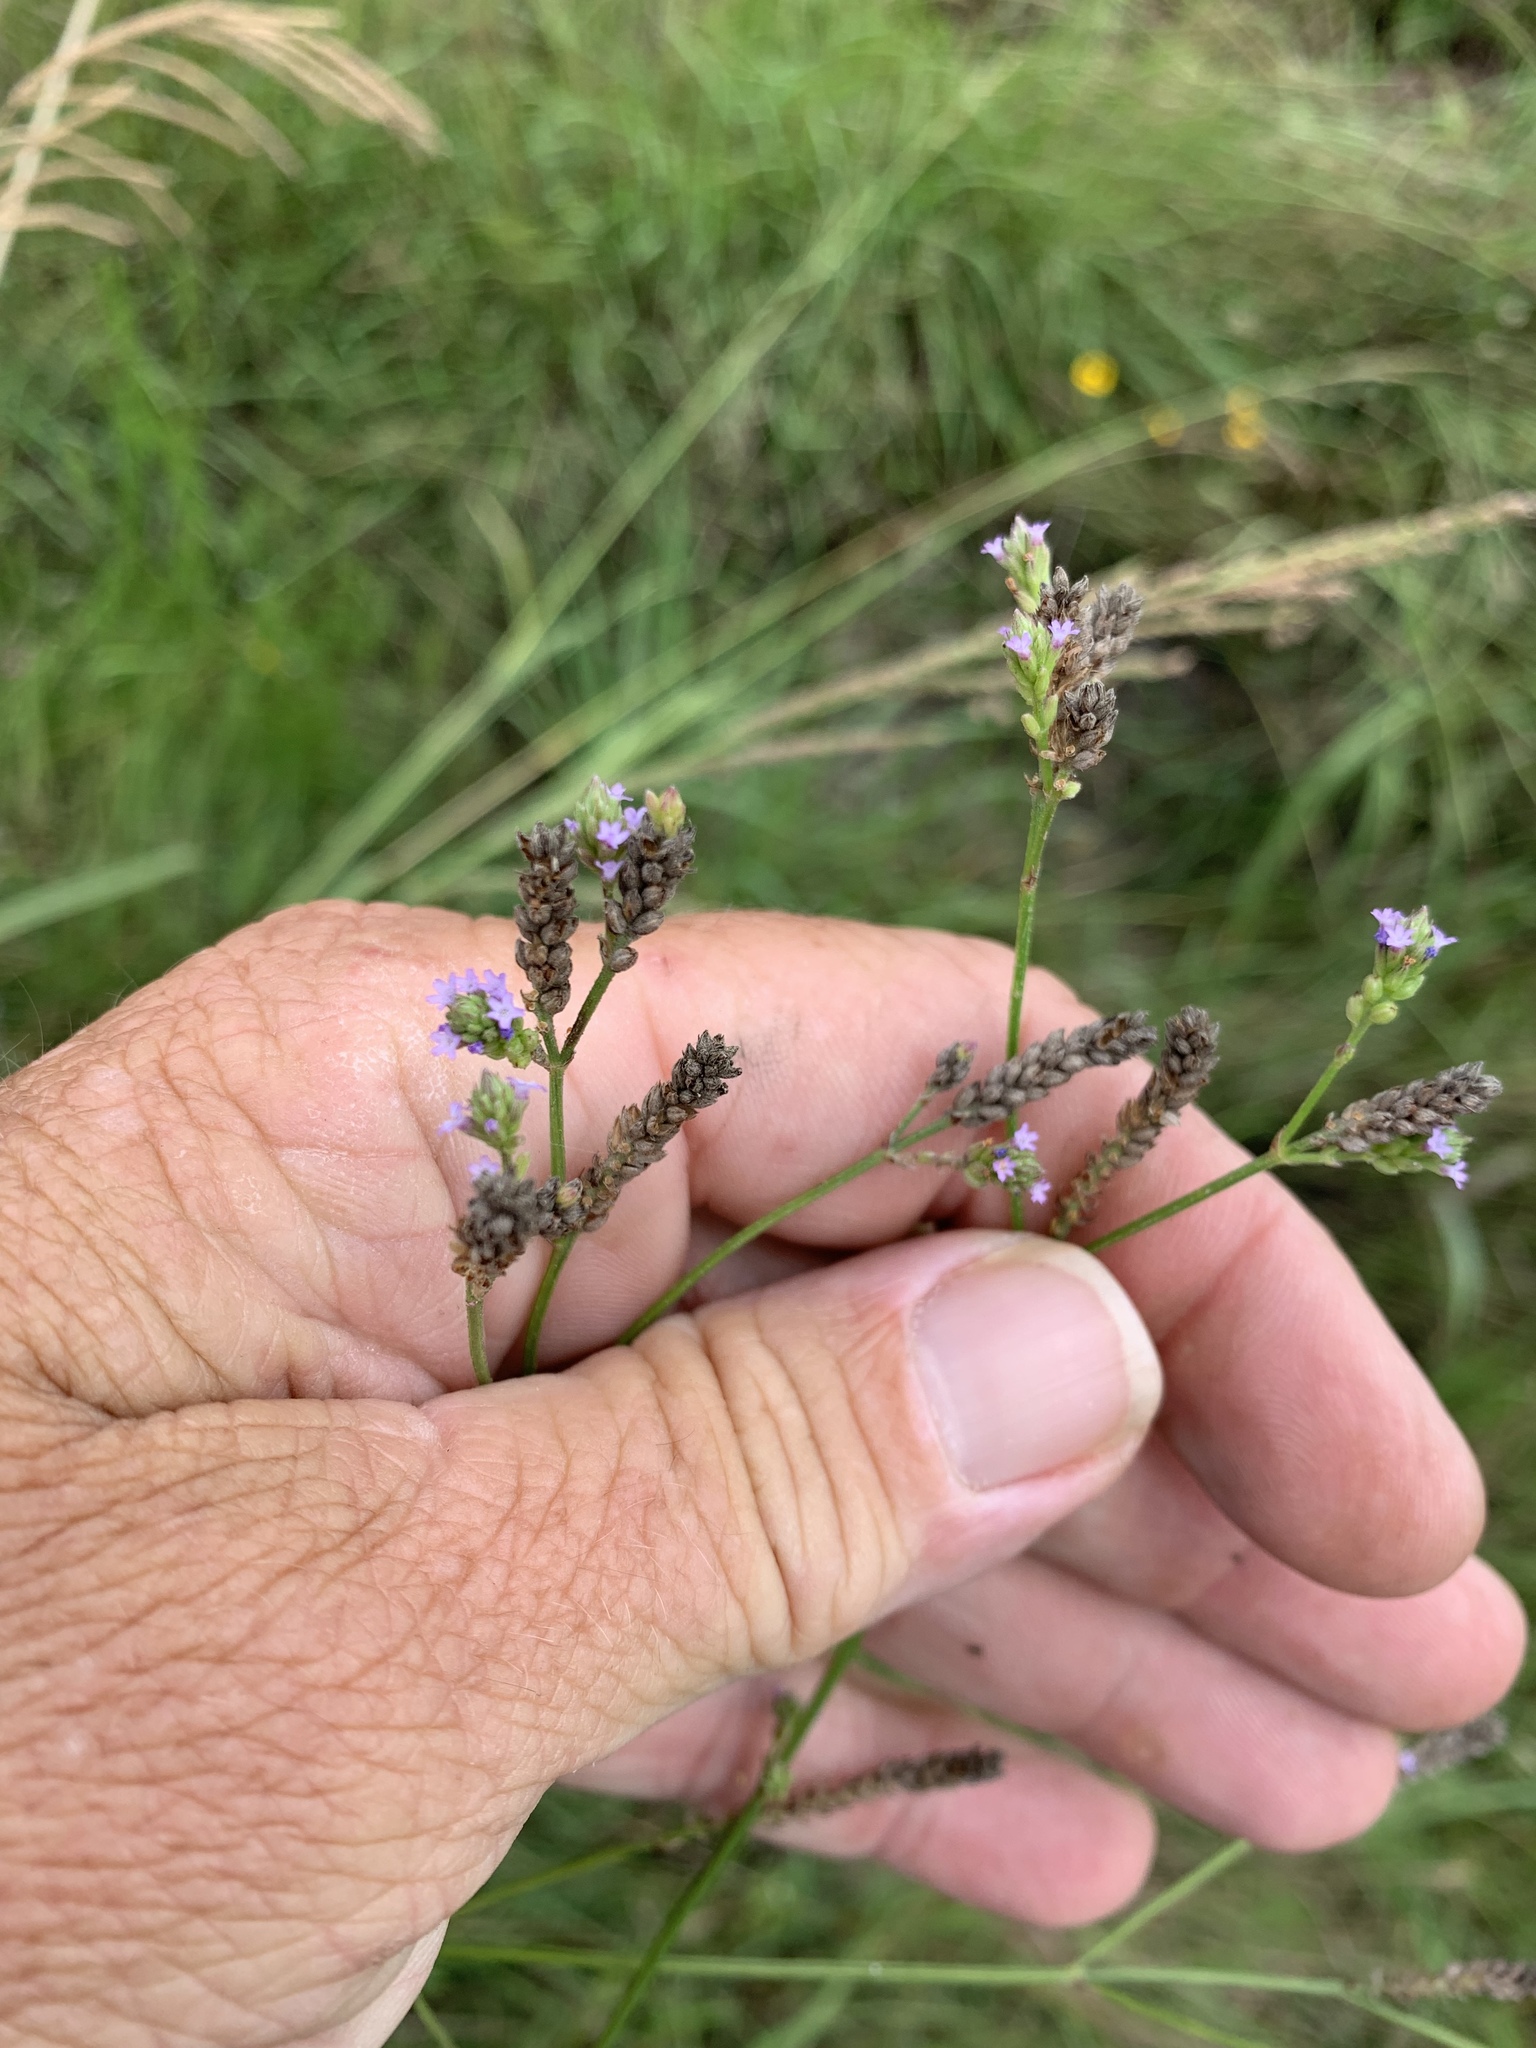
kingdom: Plantae
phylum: Tracheophyta
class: Magnoliopsida
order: Lamiales
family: Verbenaceae
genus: Verbena
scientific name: Verbena brasiliensis
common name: Brazilian vervain
